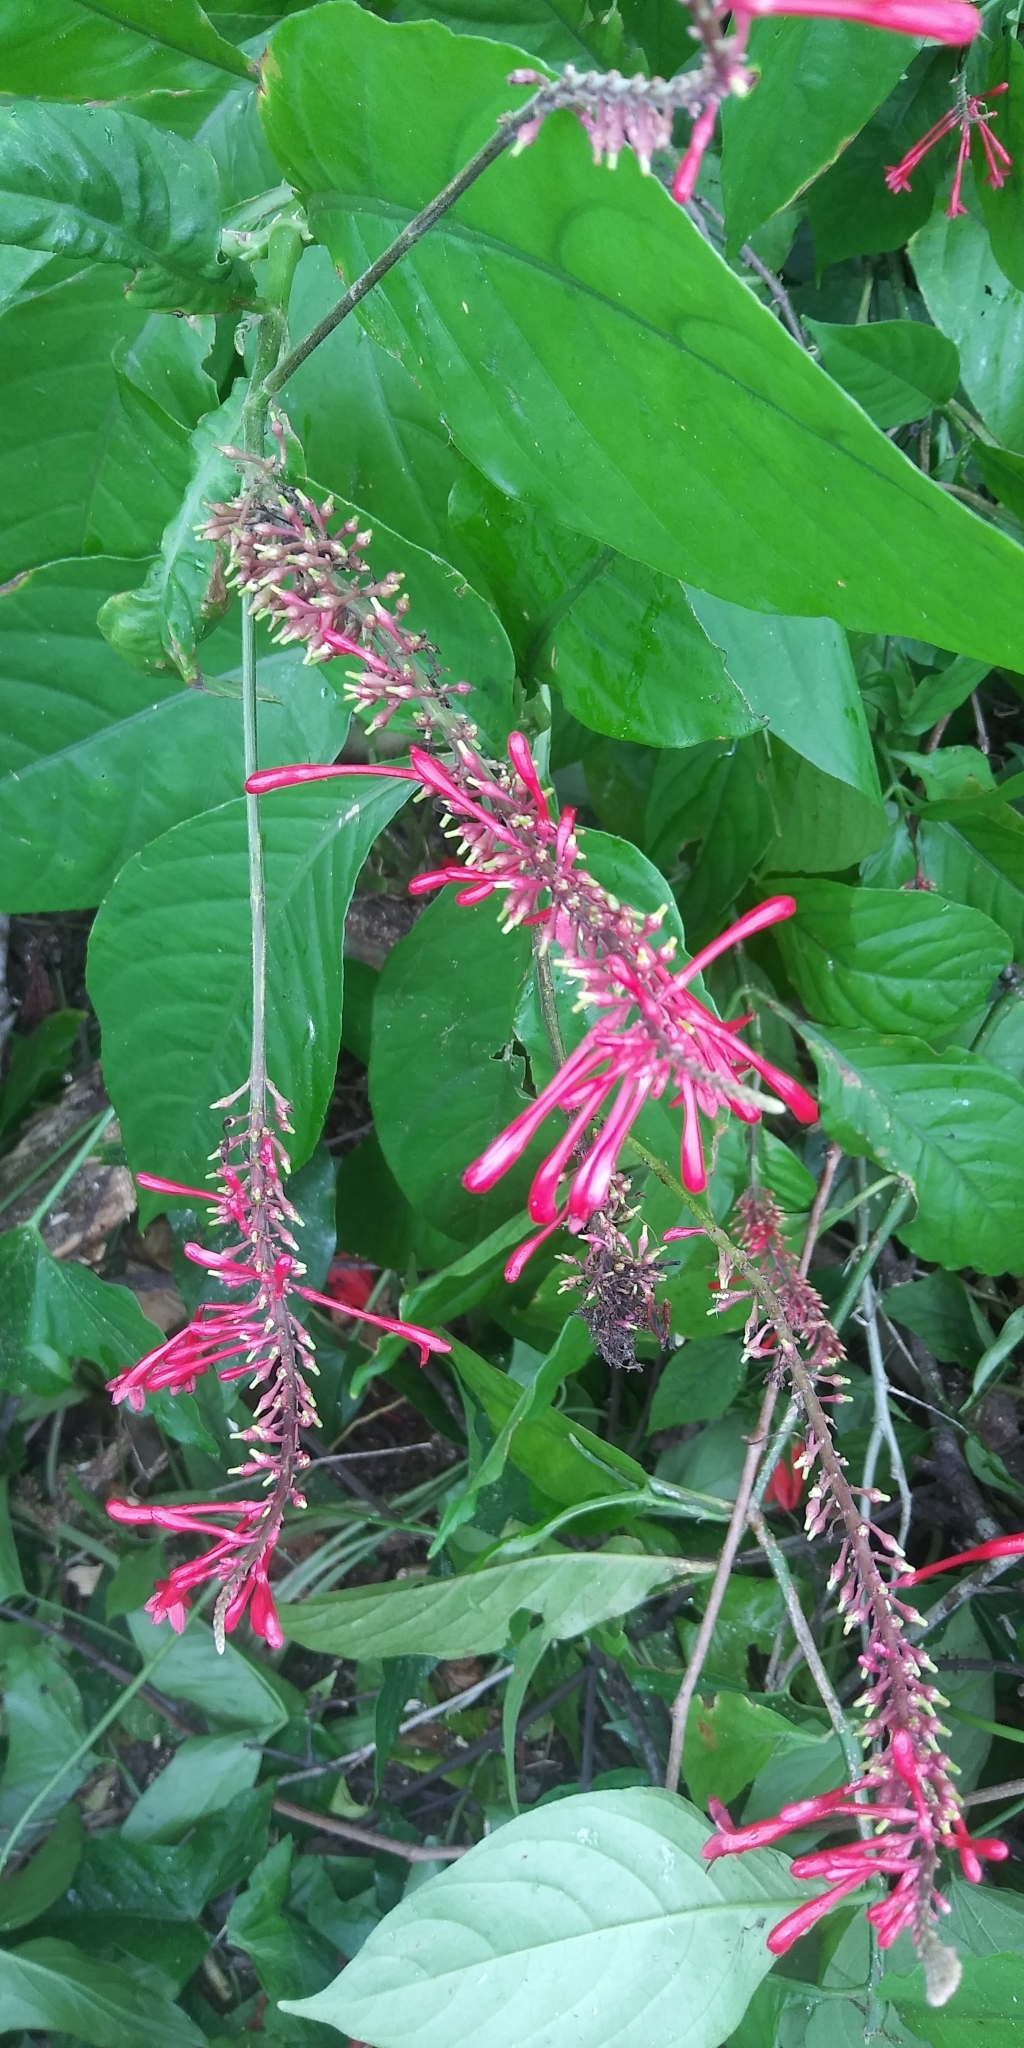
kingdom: Plantae
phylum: Tracheophyta
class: Magnoliopsida
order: Lamiales
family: Acanthaceae
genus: Odontonema
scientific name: Odontonema tubaeforme
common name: Firespike
